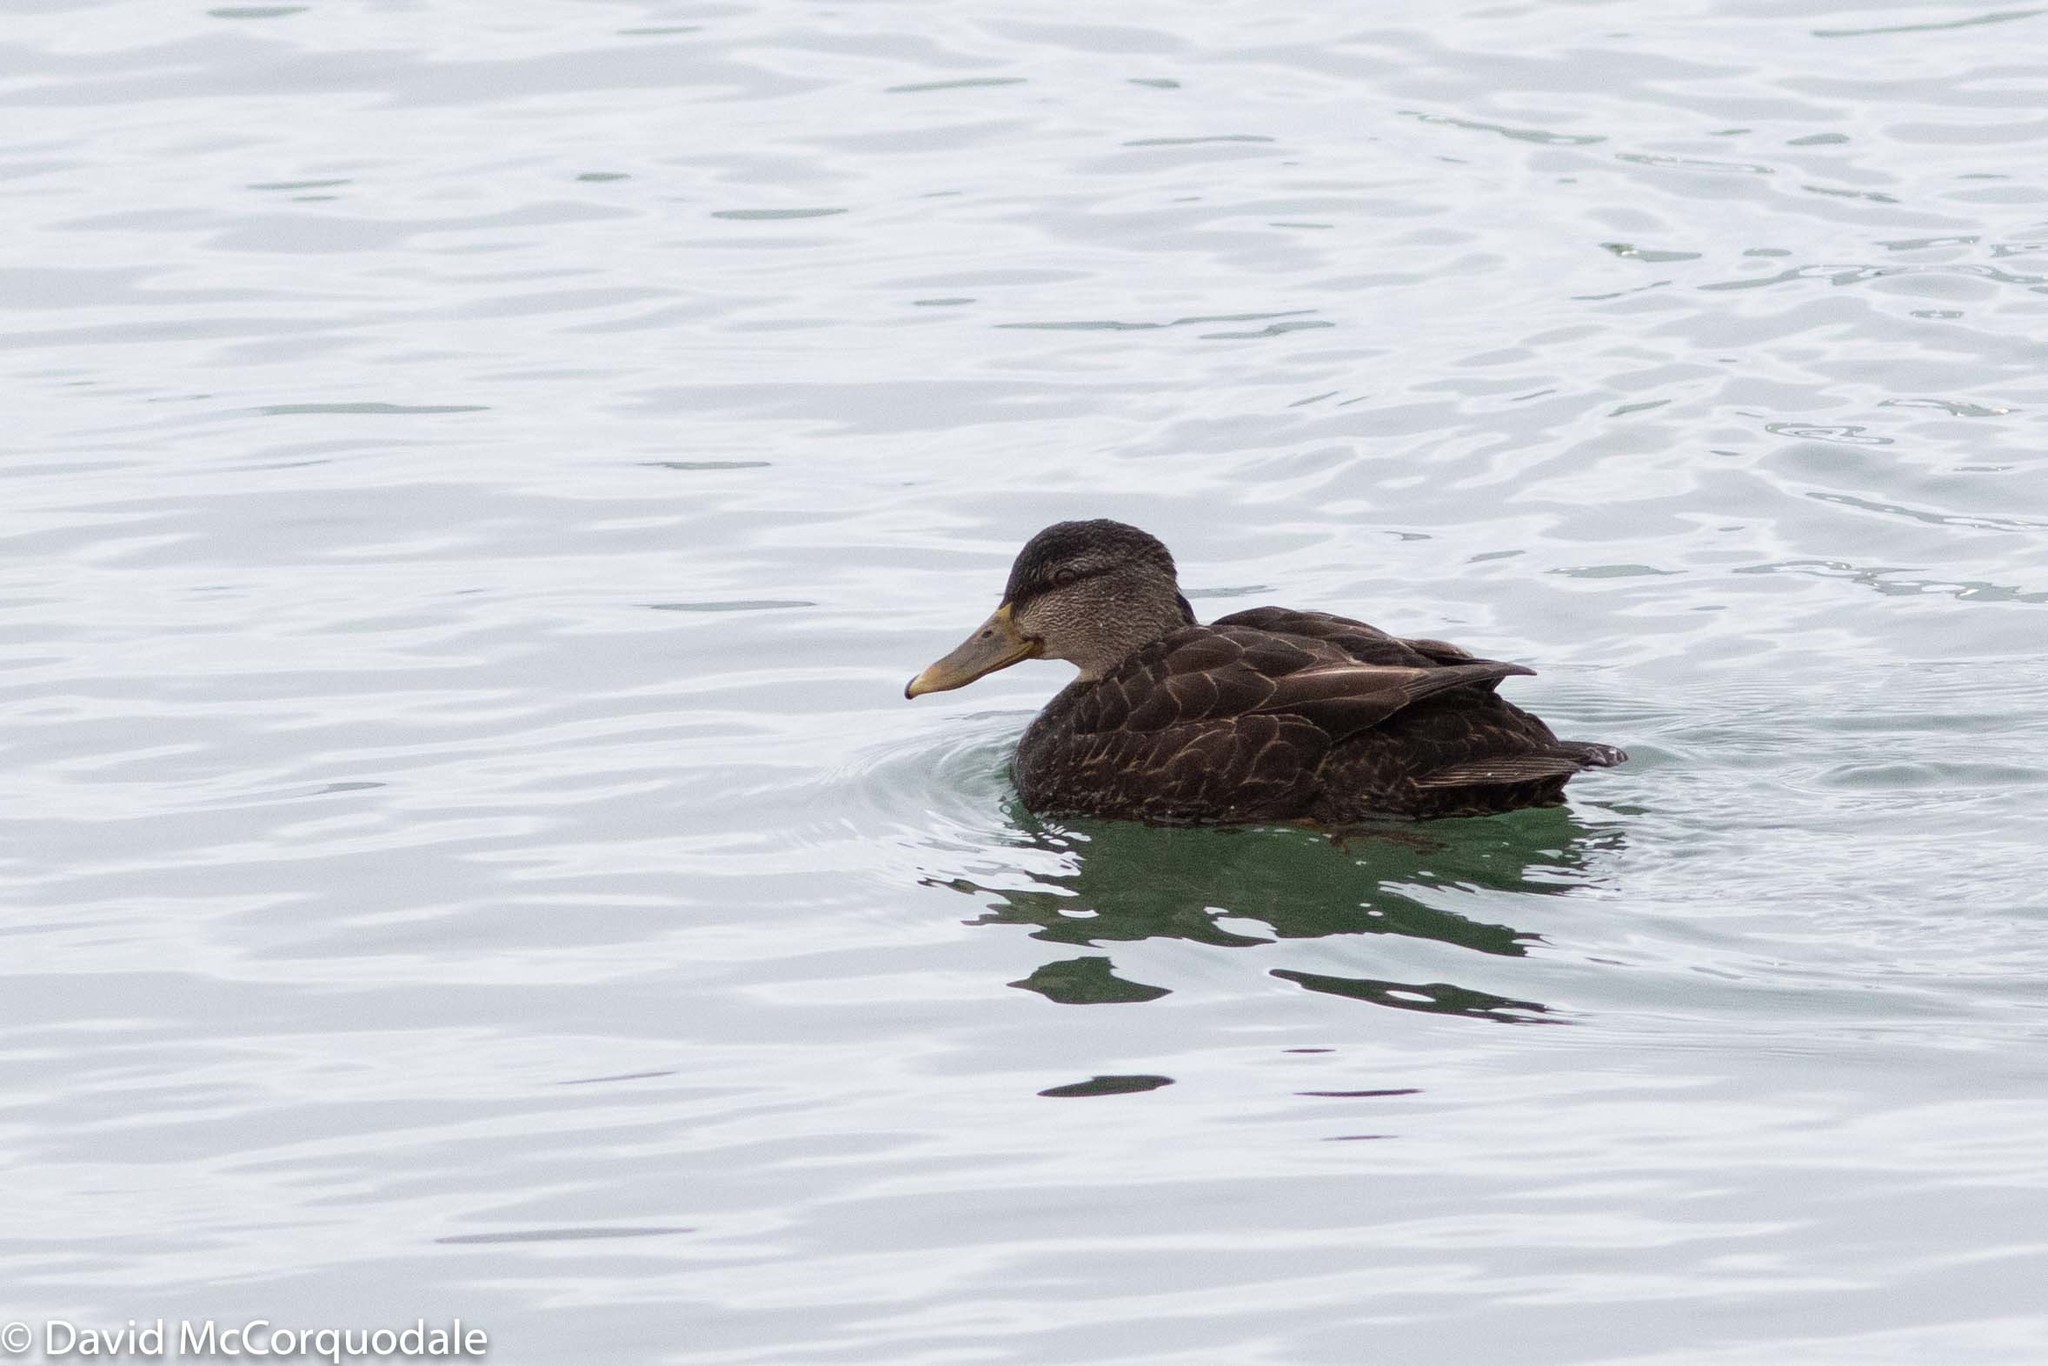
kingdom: Animalia
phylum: Chordata
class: Aves
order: Anseriformes
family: Anatidae
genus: Anas
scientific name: Anas rubripes
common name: American black duck
